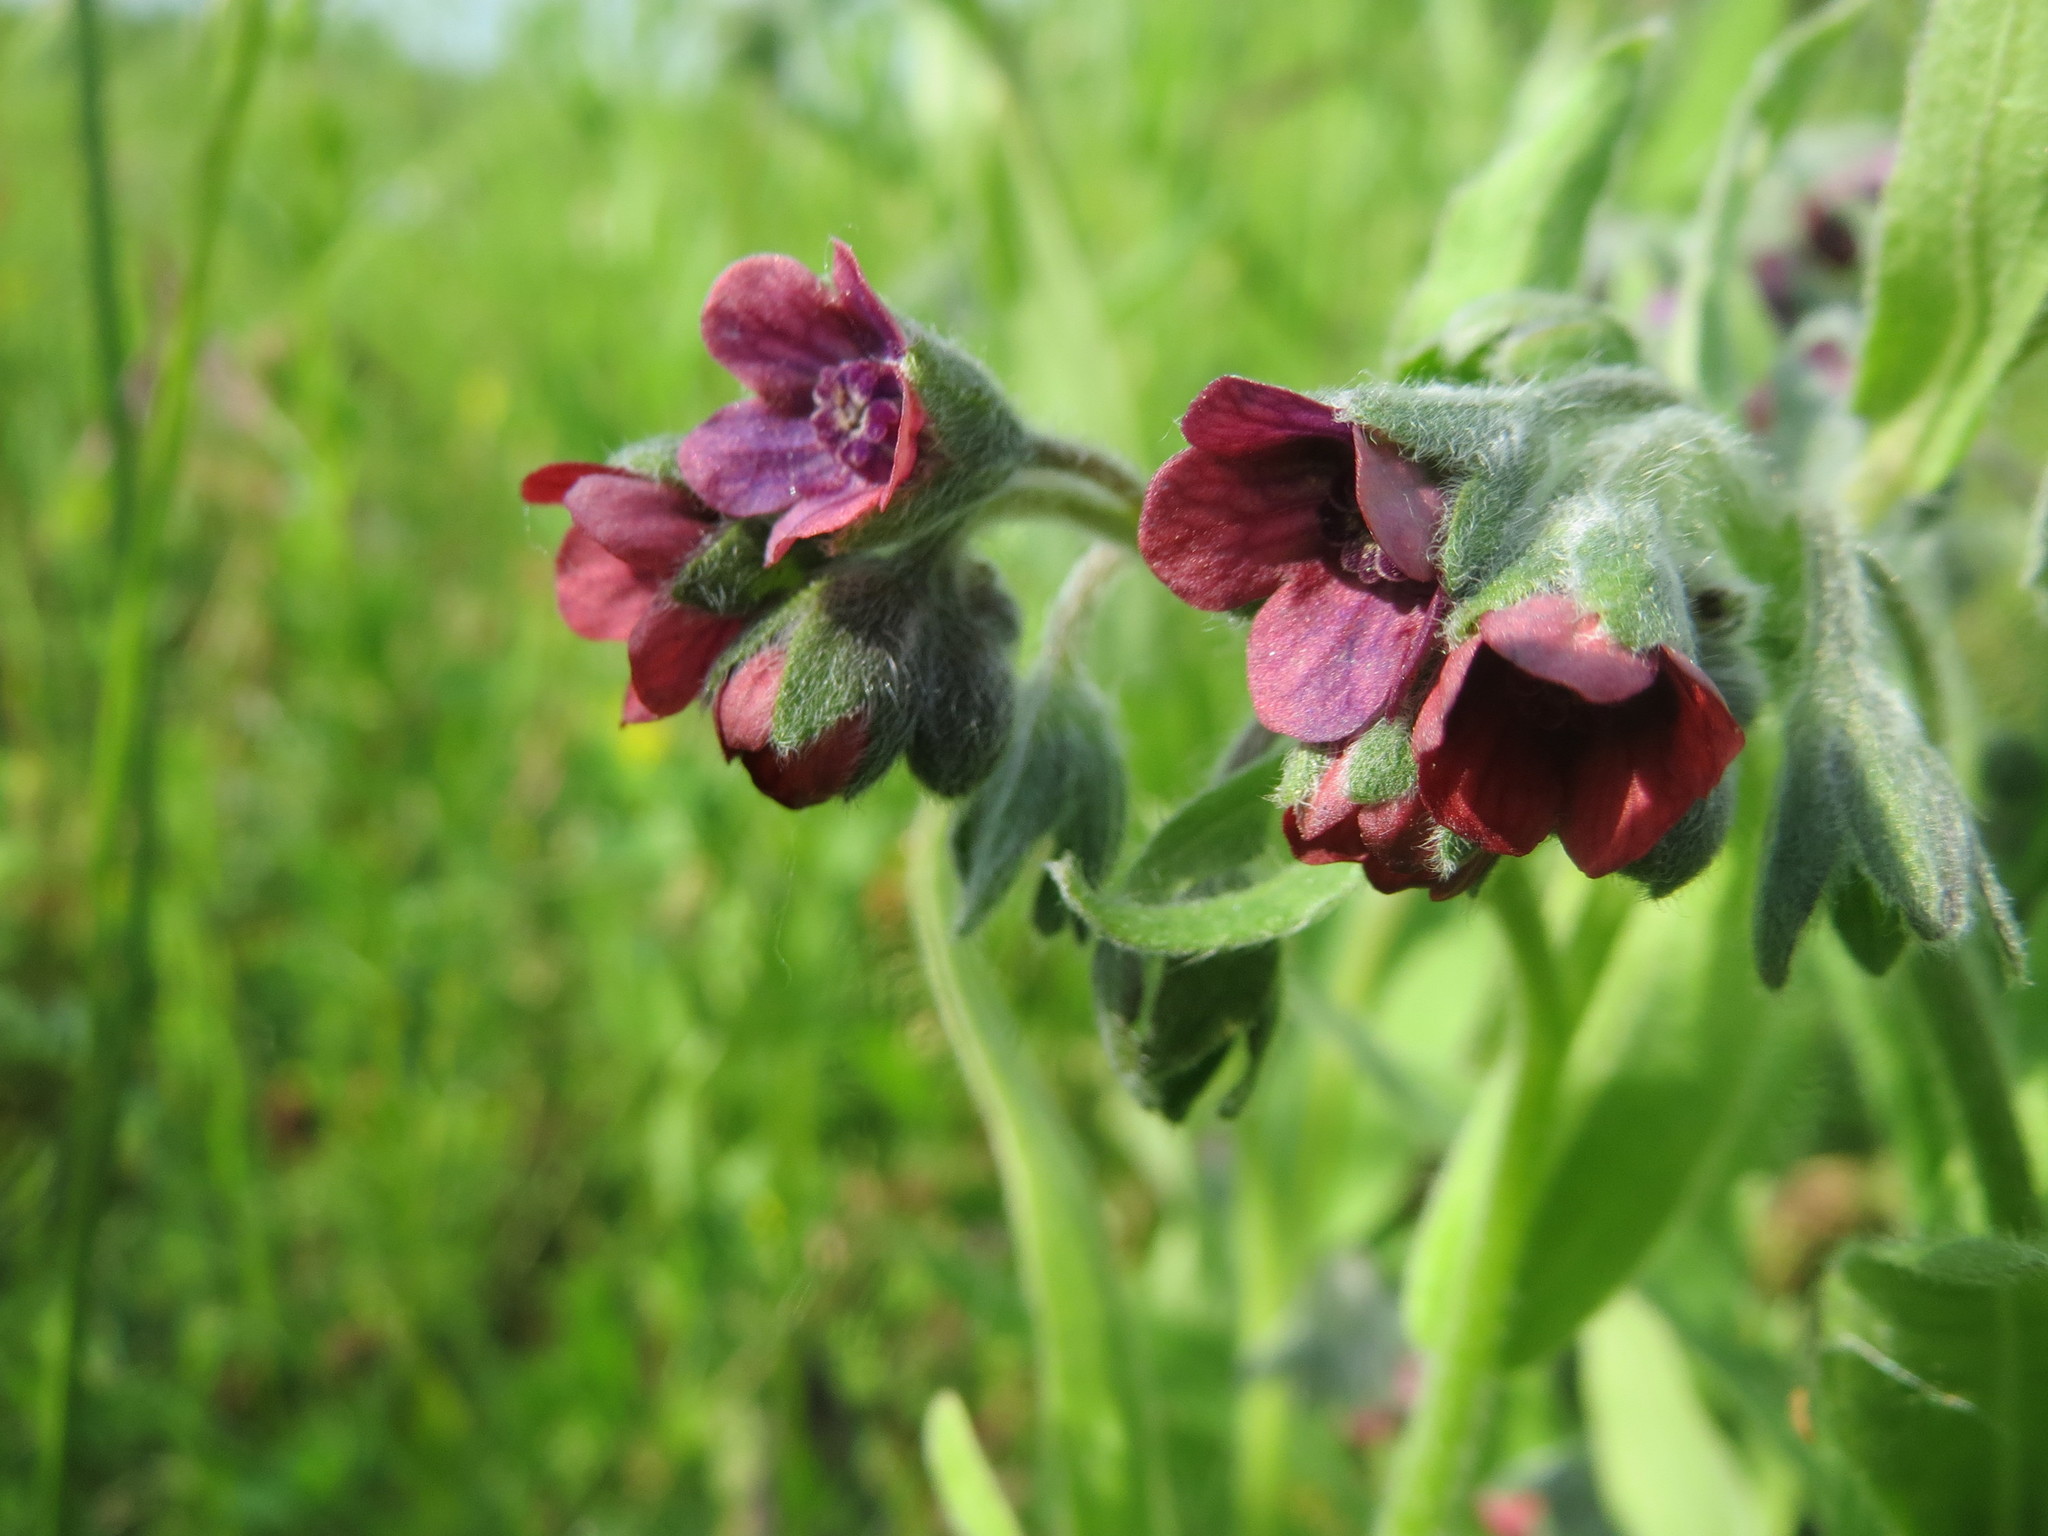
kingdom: Plantae
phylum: Tracheophyta
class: Magnoliopsida
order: Boraginales
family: Boraginaceae
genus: Cynoglossum
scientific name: Cynoglossum officinale
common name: Hound's-tongue
